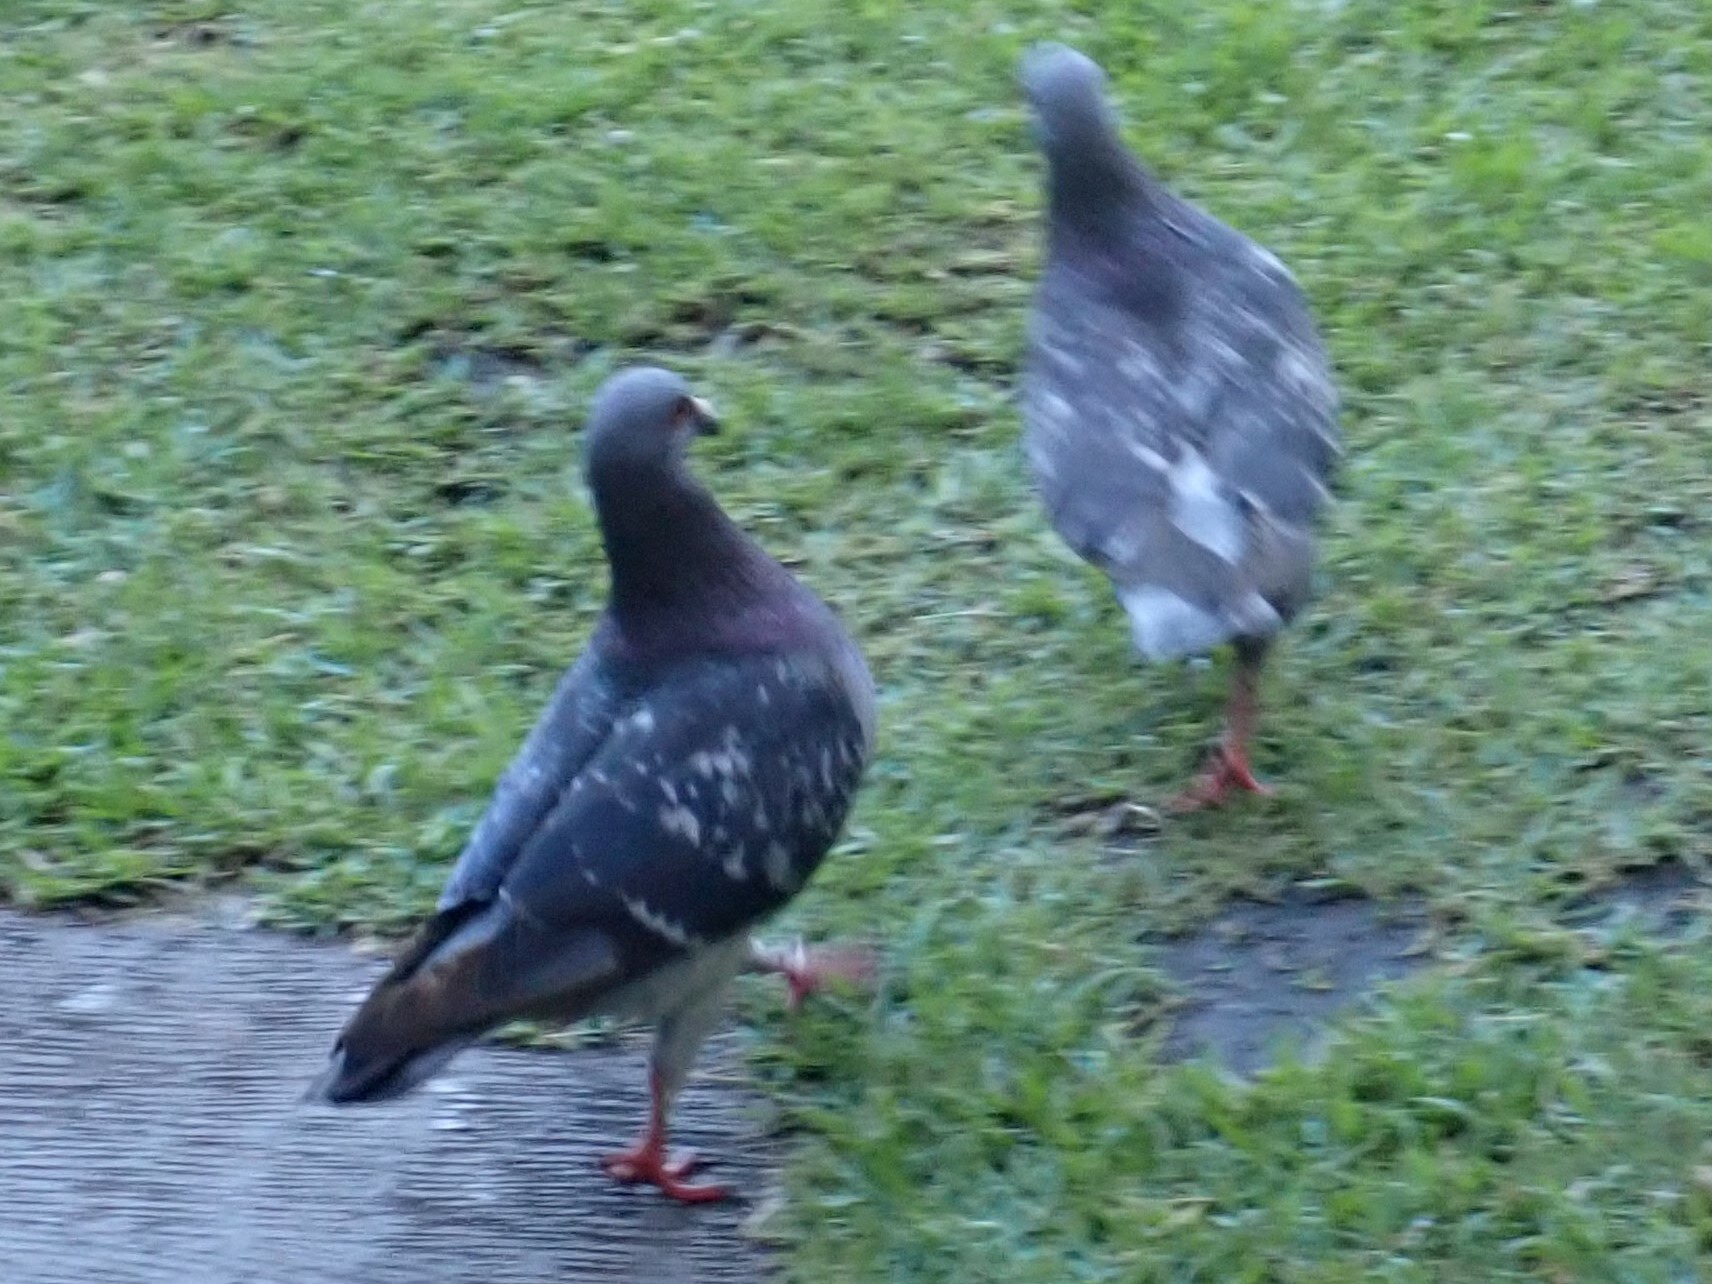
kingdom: Animalia
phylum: Chordata
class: Aves
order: Columbiformes
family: Columbidae
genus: Columba
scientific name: Columba livia
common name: Rock pigeon
